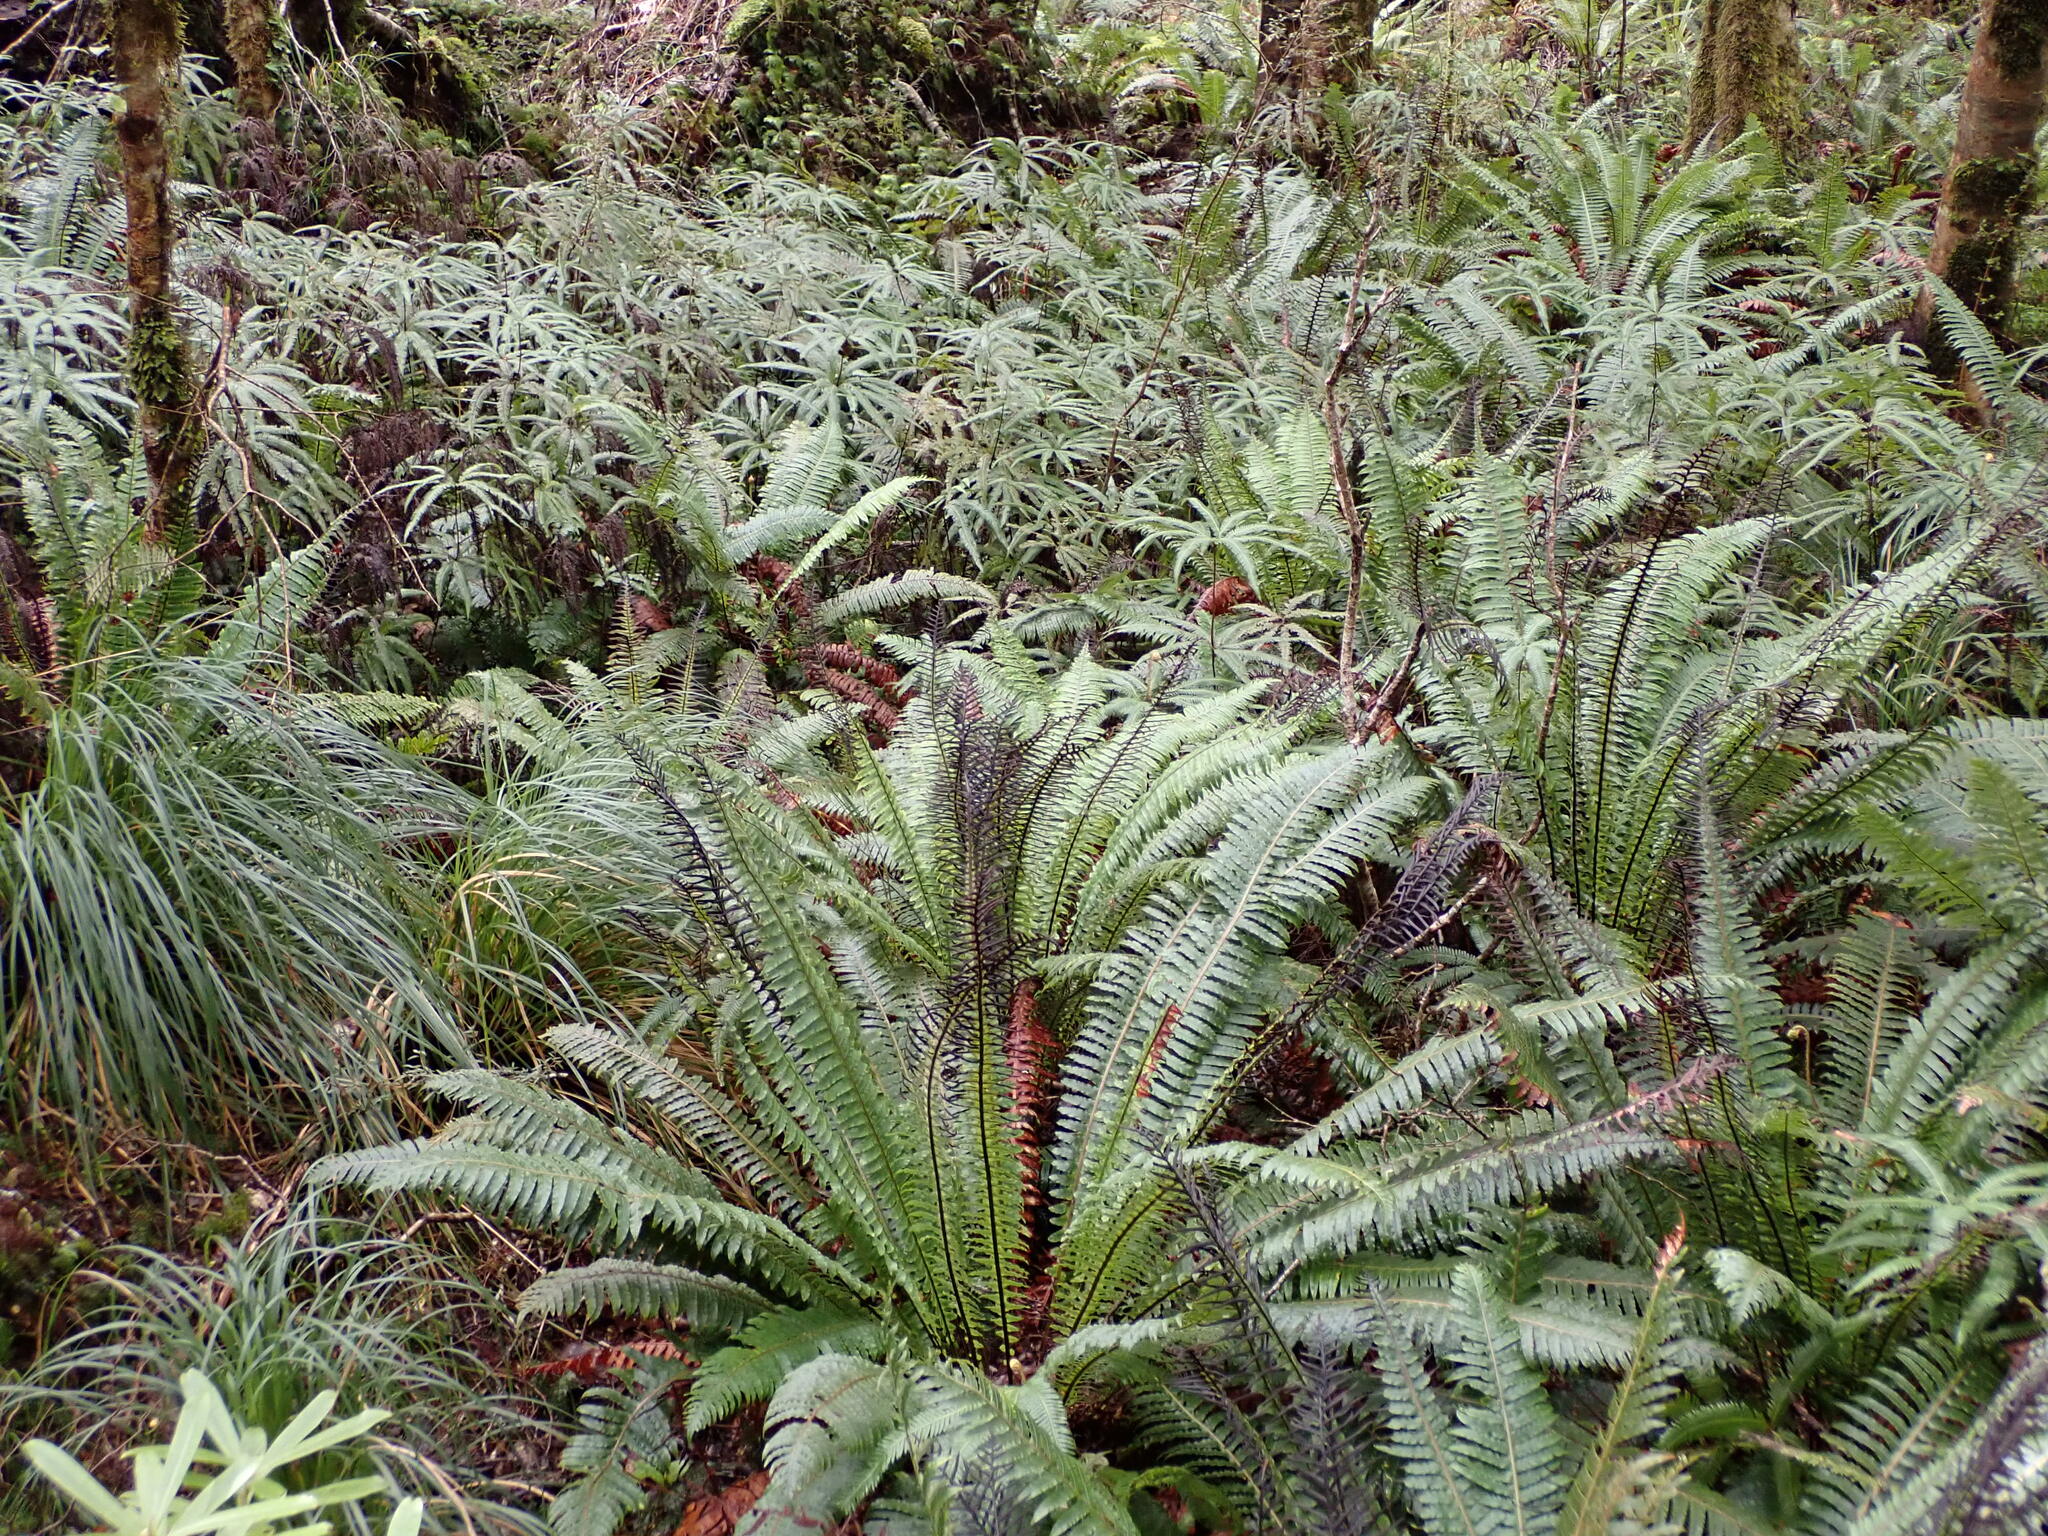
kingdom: Plantae
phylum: Tracheophyta
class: Polypodiopsida
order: Polypodiales
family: Blechnaceae
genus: Lomaria
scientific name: Lomaria discolor
